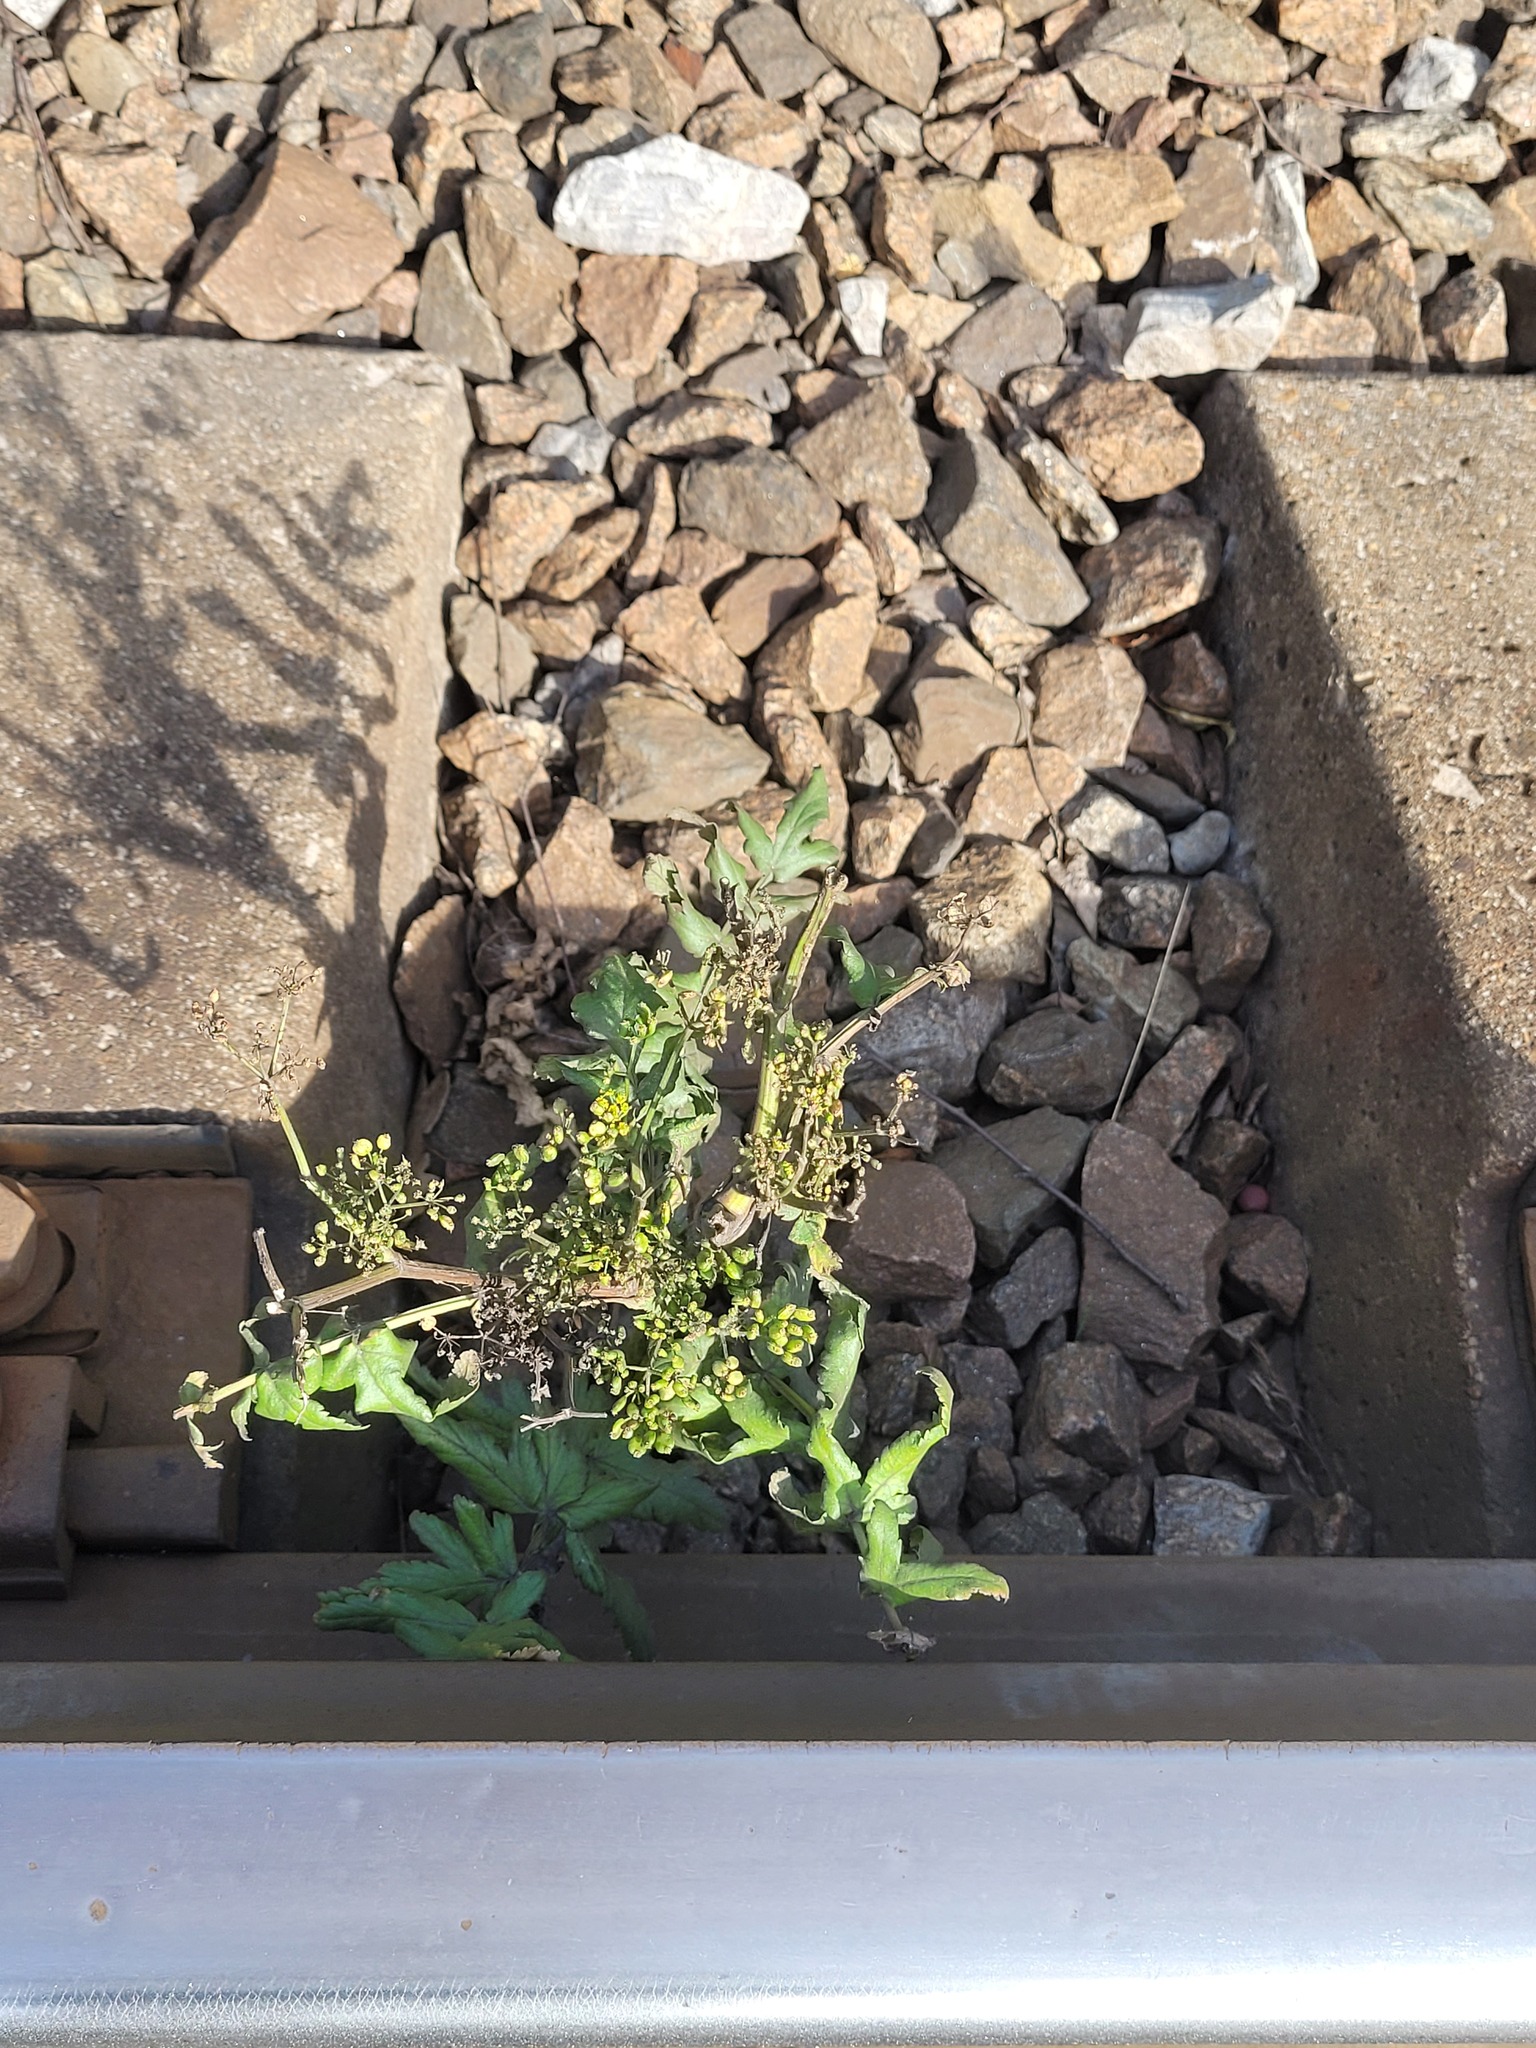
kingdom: Plantae
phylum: Tracheophyta
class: Magnoliopsida
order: Apiales
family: Apiaceae
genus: Pastinaca
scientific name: Pastinaca sativa
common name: Wild parsnip
